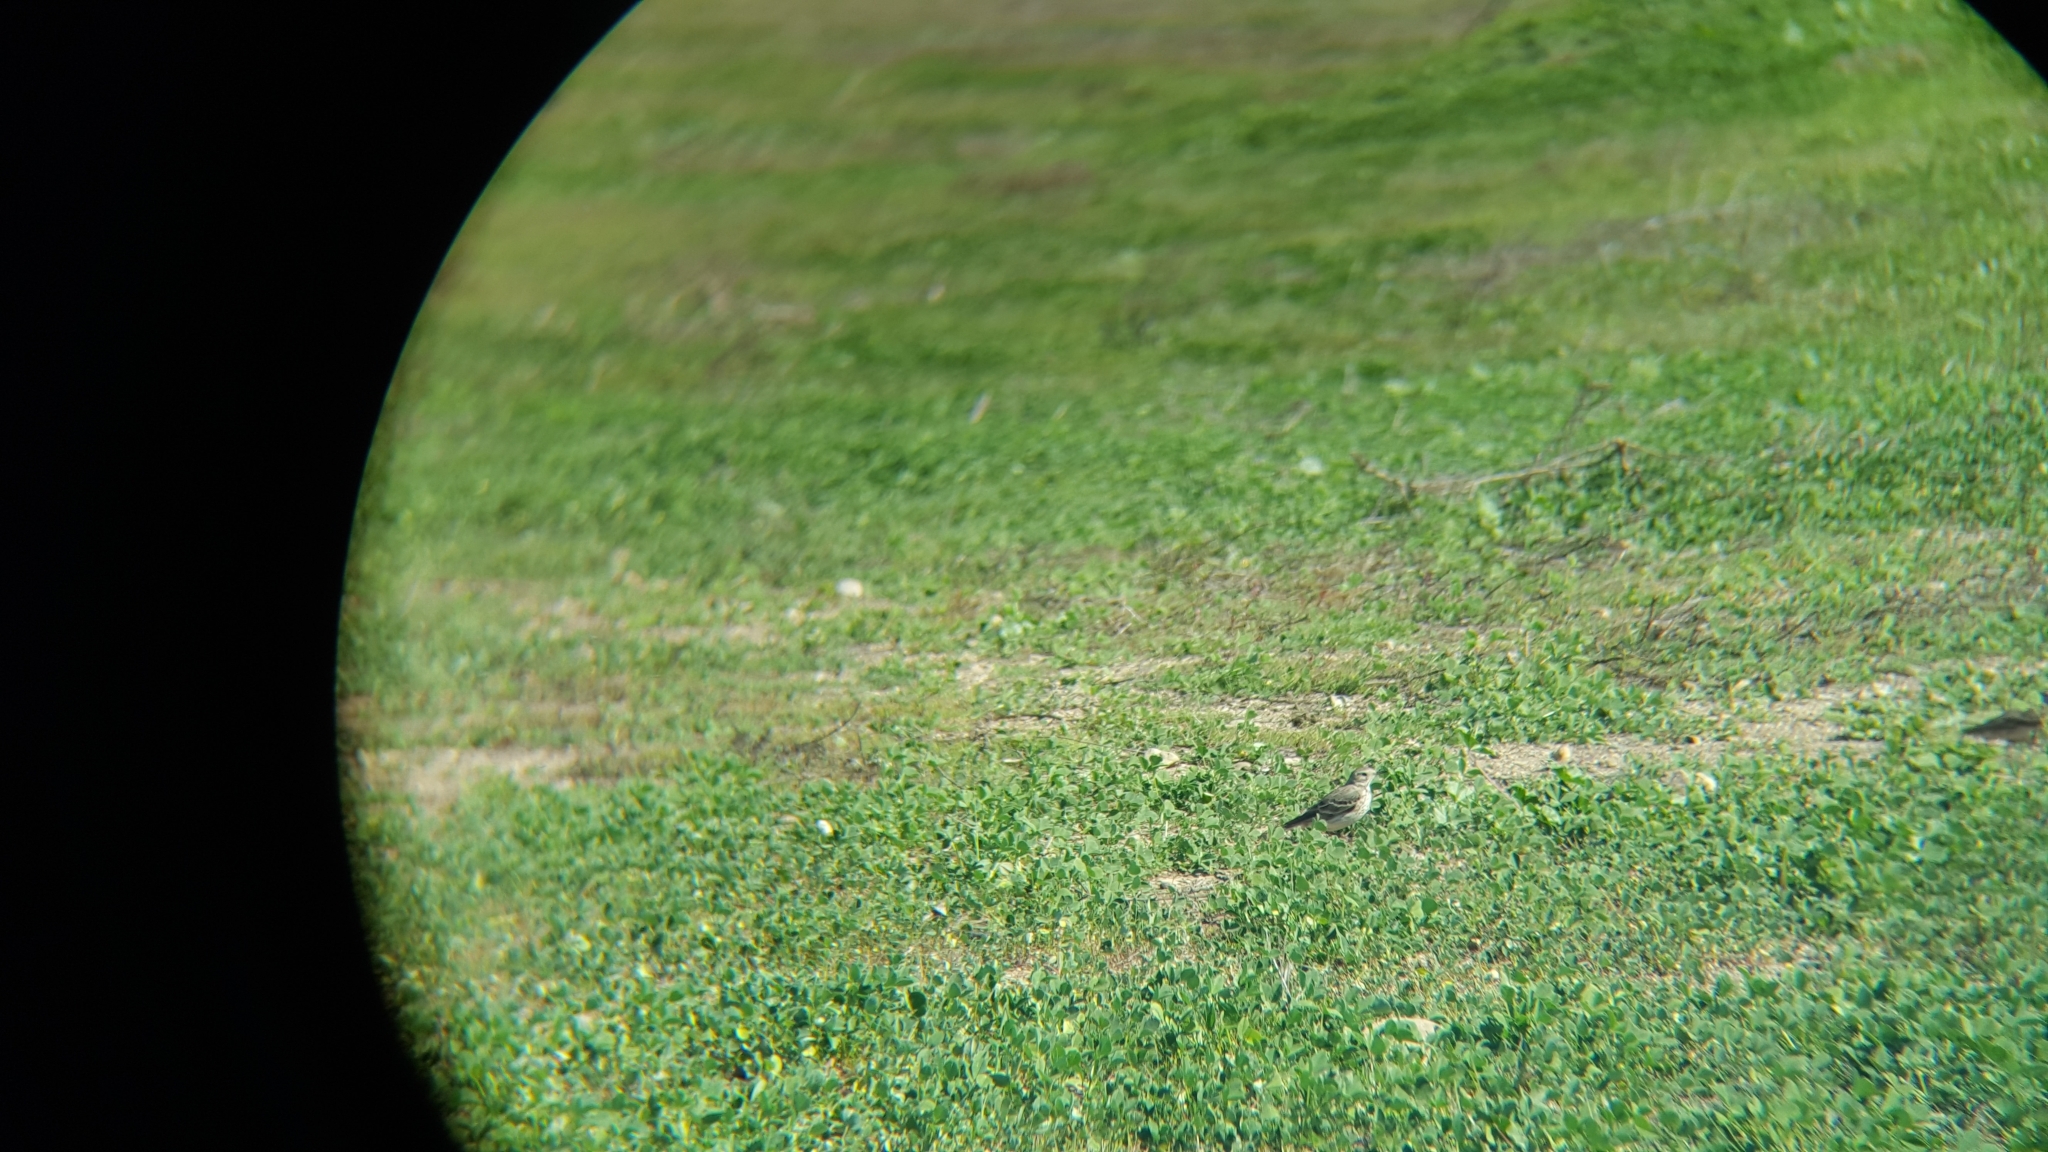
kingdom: Animalia
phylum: Chordata
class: Aves
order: Passeriformes
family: Motacillidae
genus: Anthus
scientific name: Anthus rubescens
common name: Buff-bellied pipit
